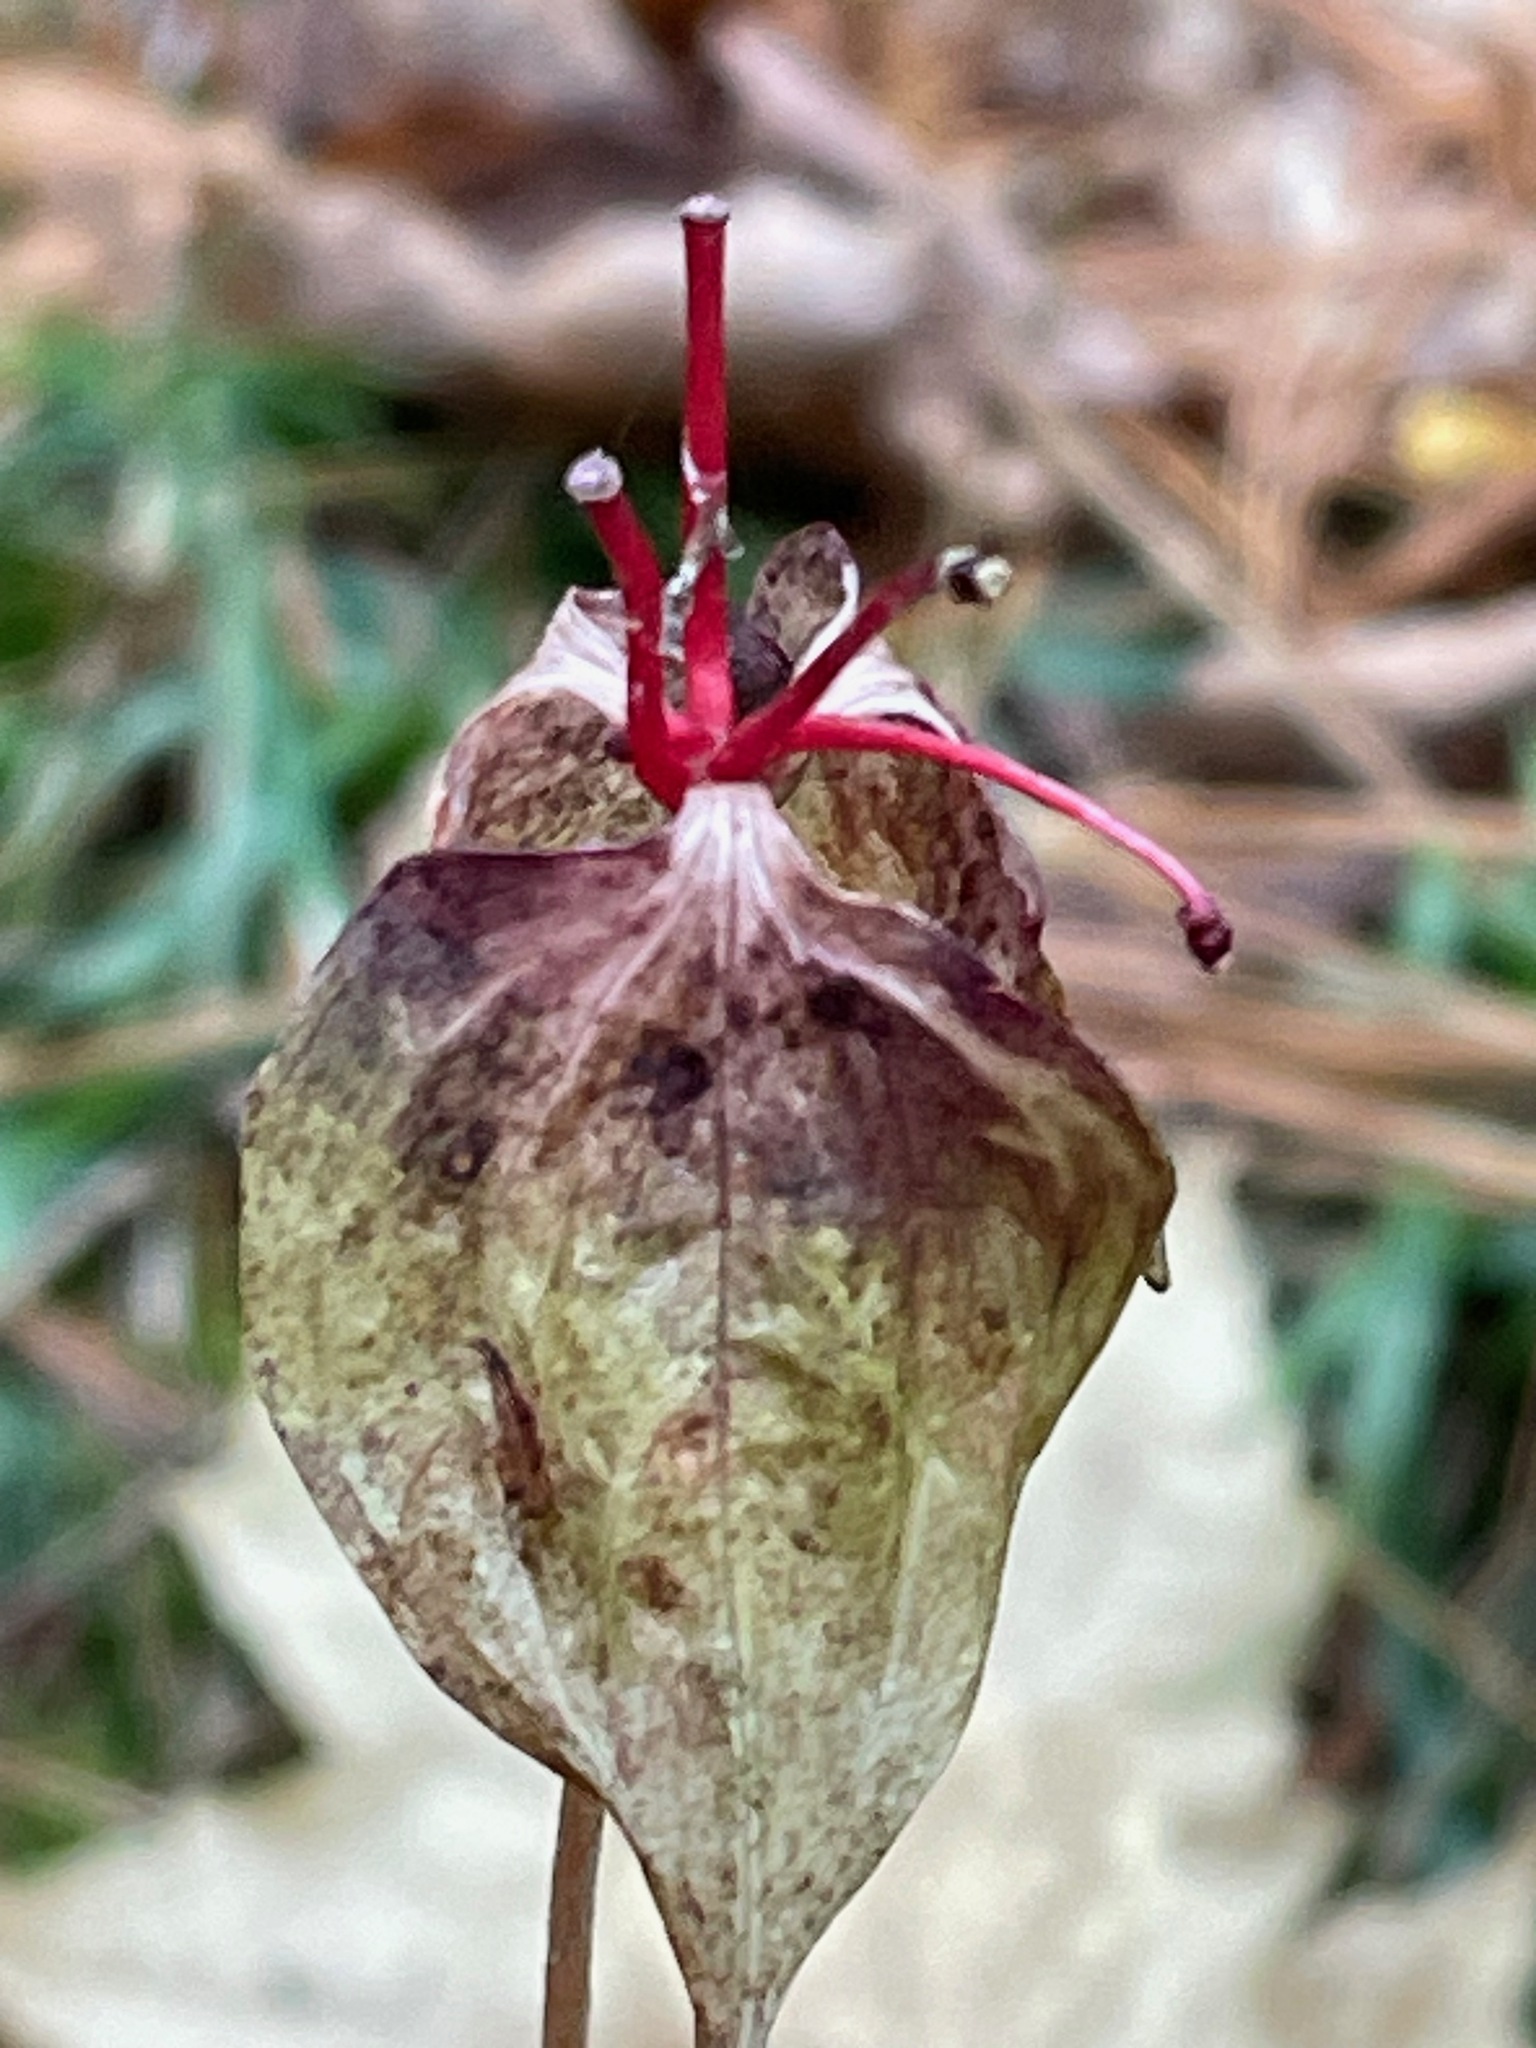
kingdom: Plantae
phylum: Tracheophyta
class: Liliopsida
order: Liliales
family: Liliaceae
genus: Medeola
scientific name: Medeola virginiana
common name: Indian cucumber-root
